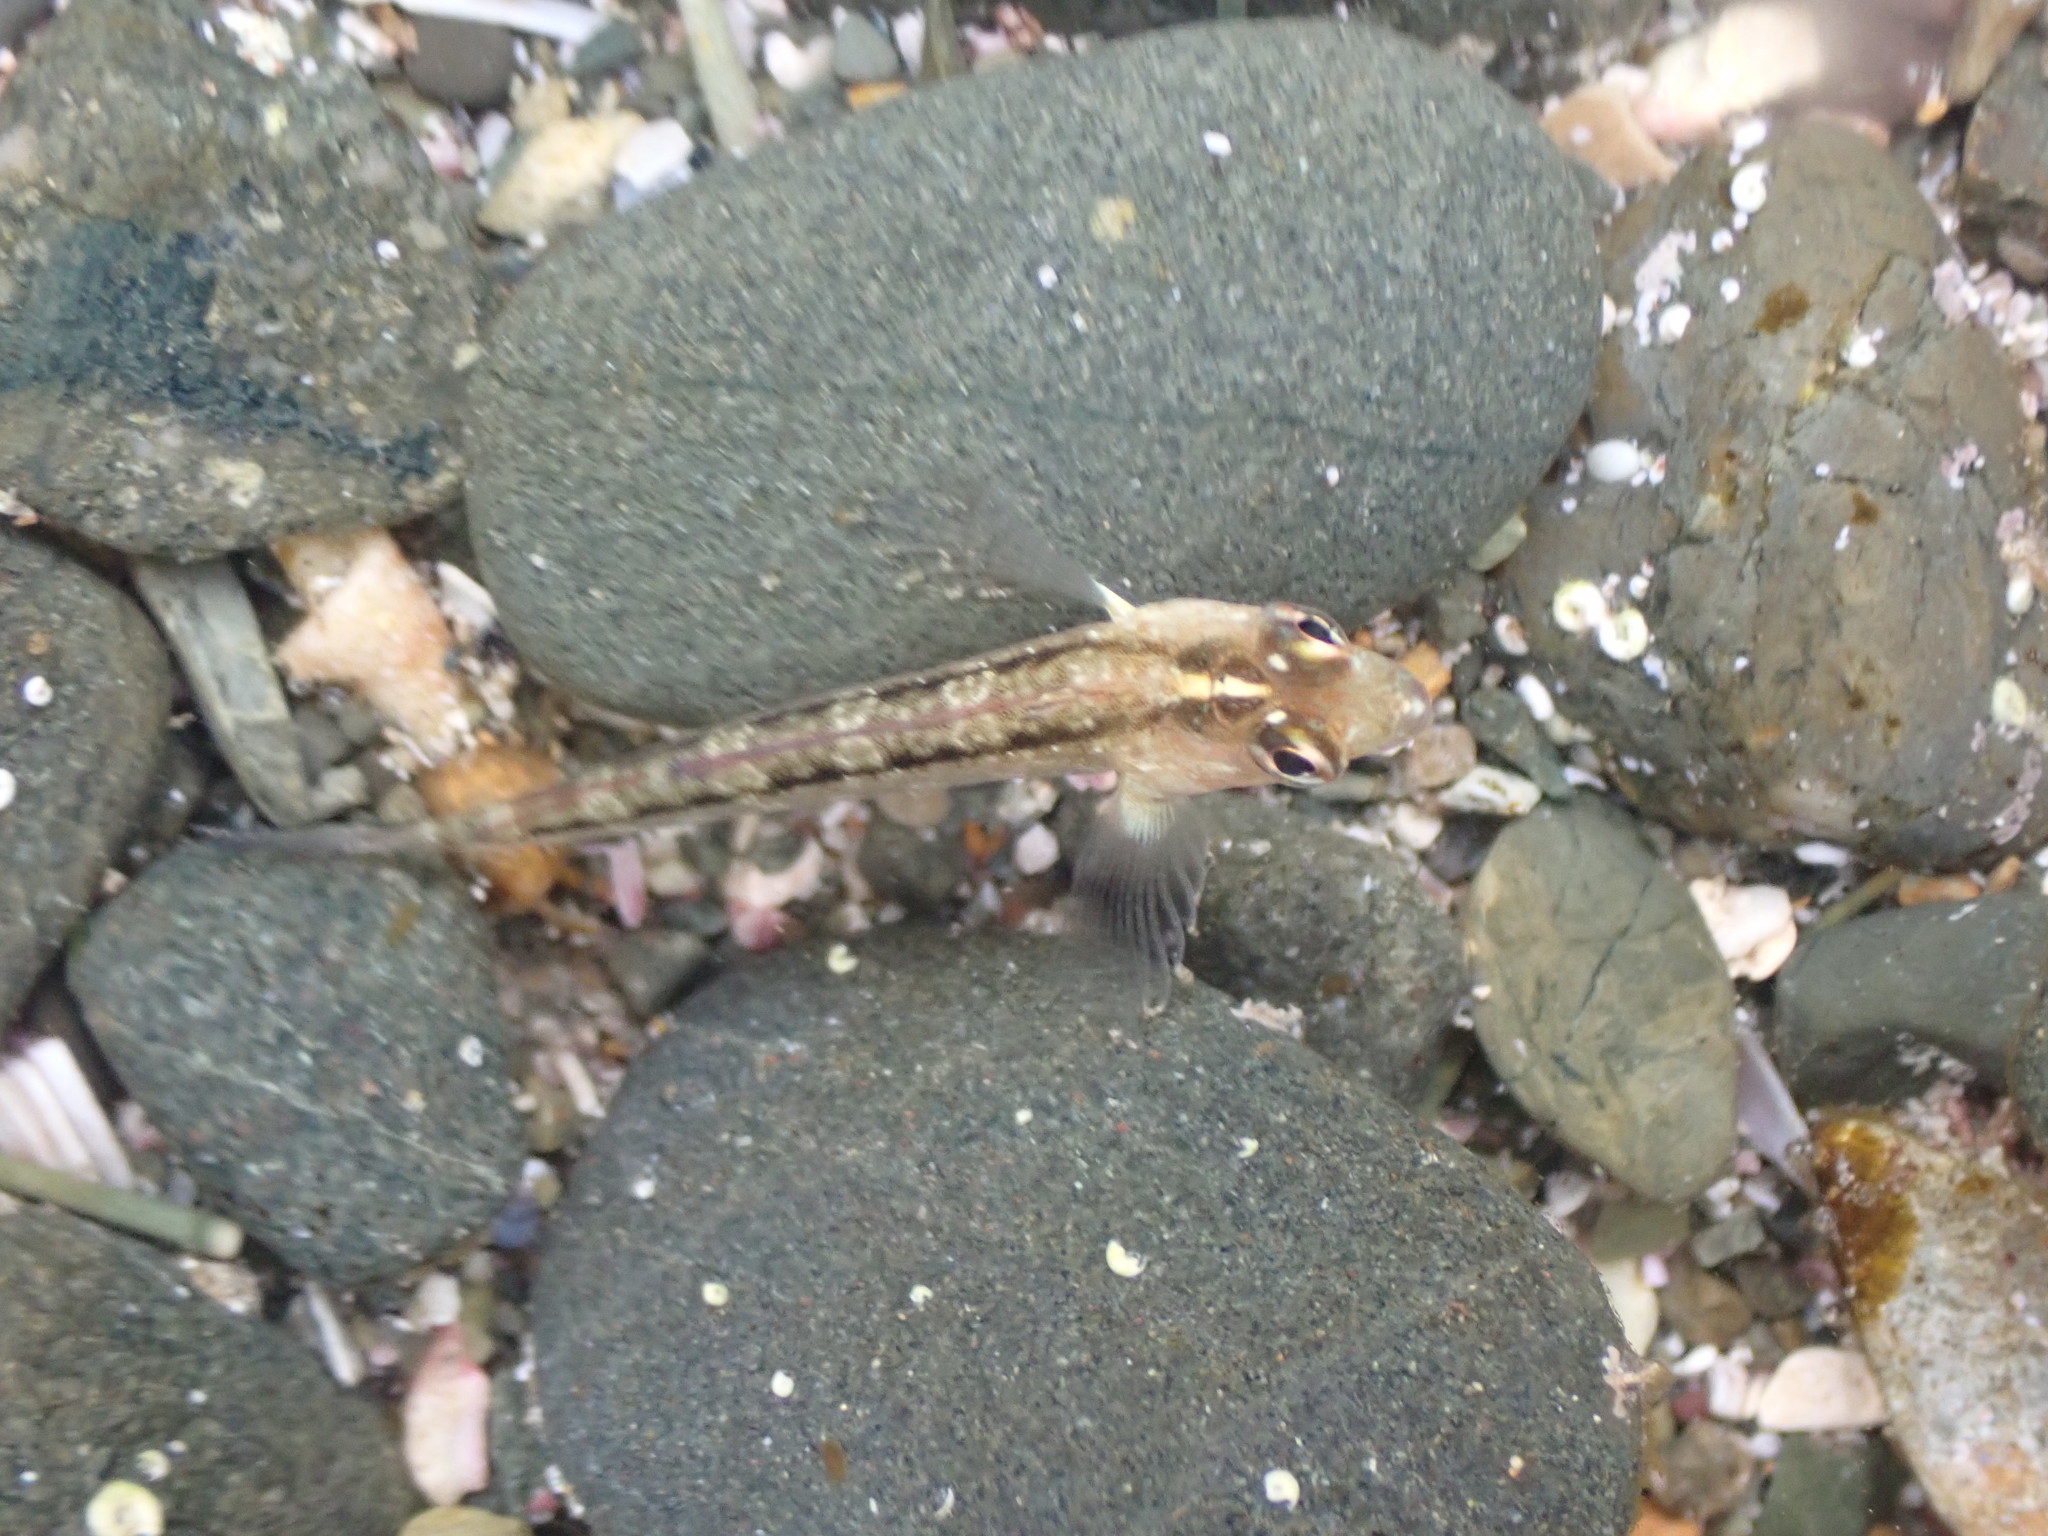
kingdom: Animalia
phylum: Chordata
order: Perciformes
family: Tripterygiidae
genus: Forsterygion
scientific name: Forsterygion lapillum
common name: Common triplefin
